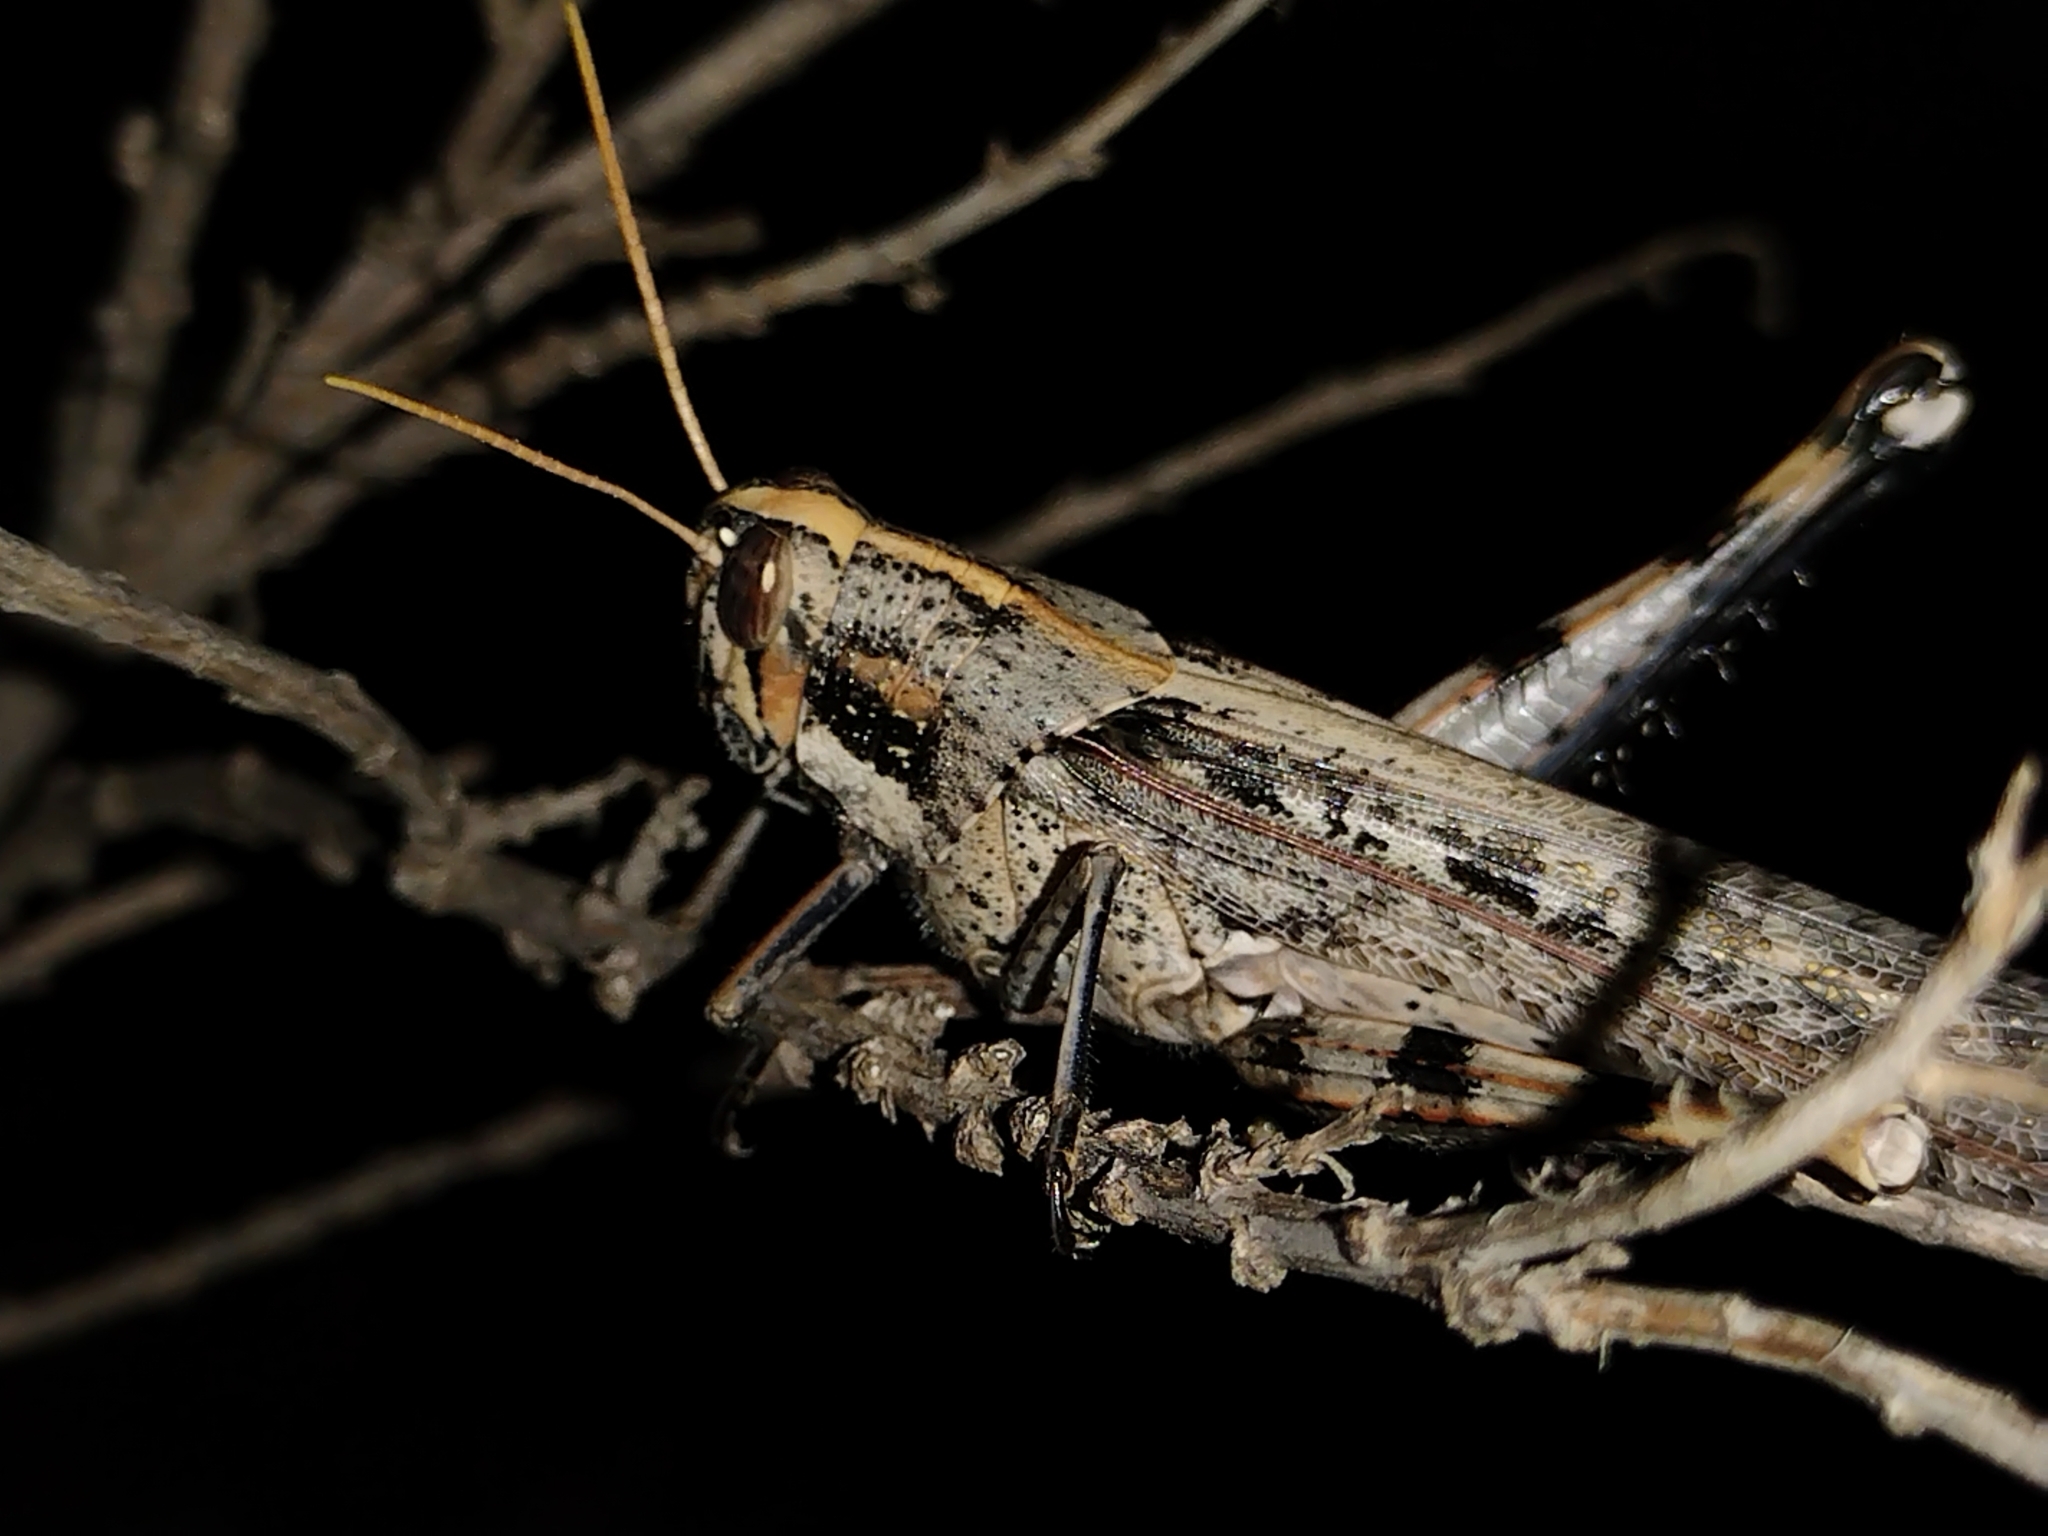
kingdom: Animalia
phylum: Arthropoda
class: Insecta
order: Orthoptera
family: Acrididae
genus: Schistocerca
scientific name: Schistocerca nitens
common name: Vagrant grasshopper
